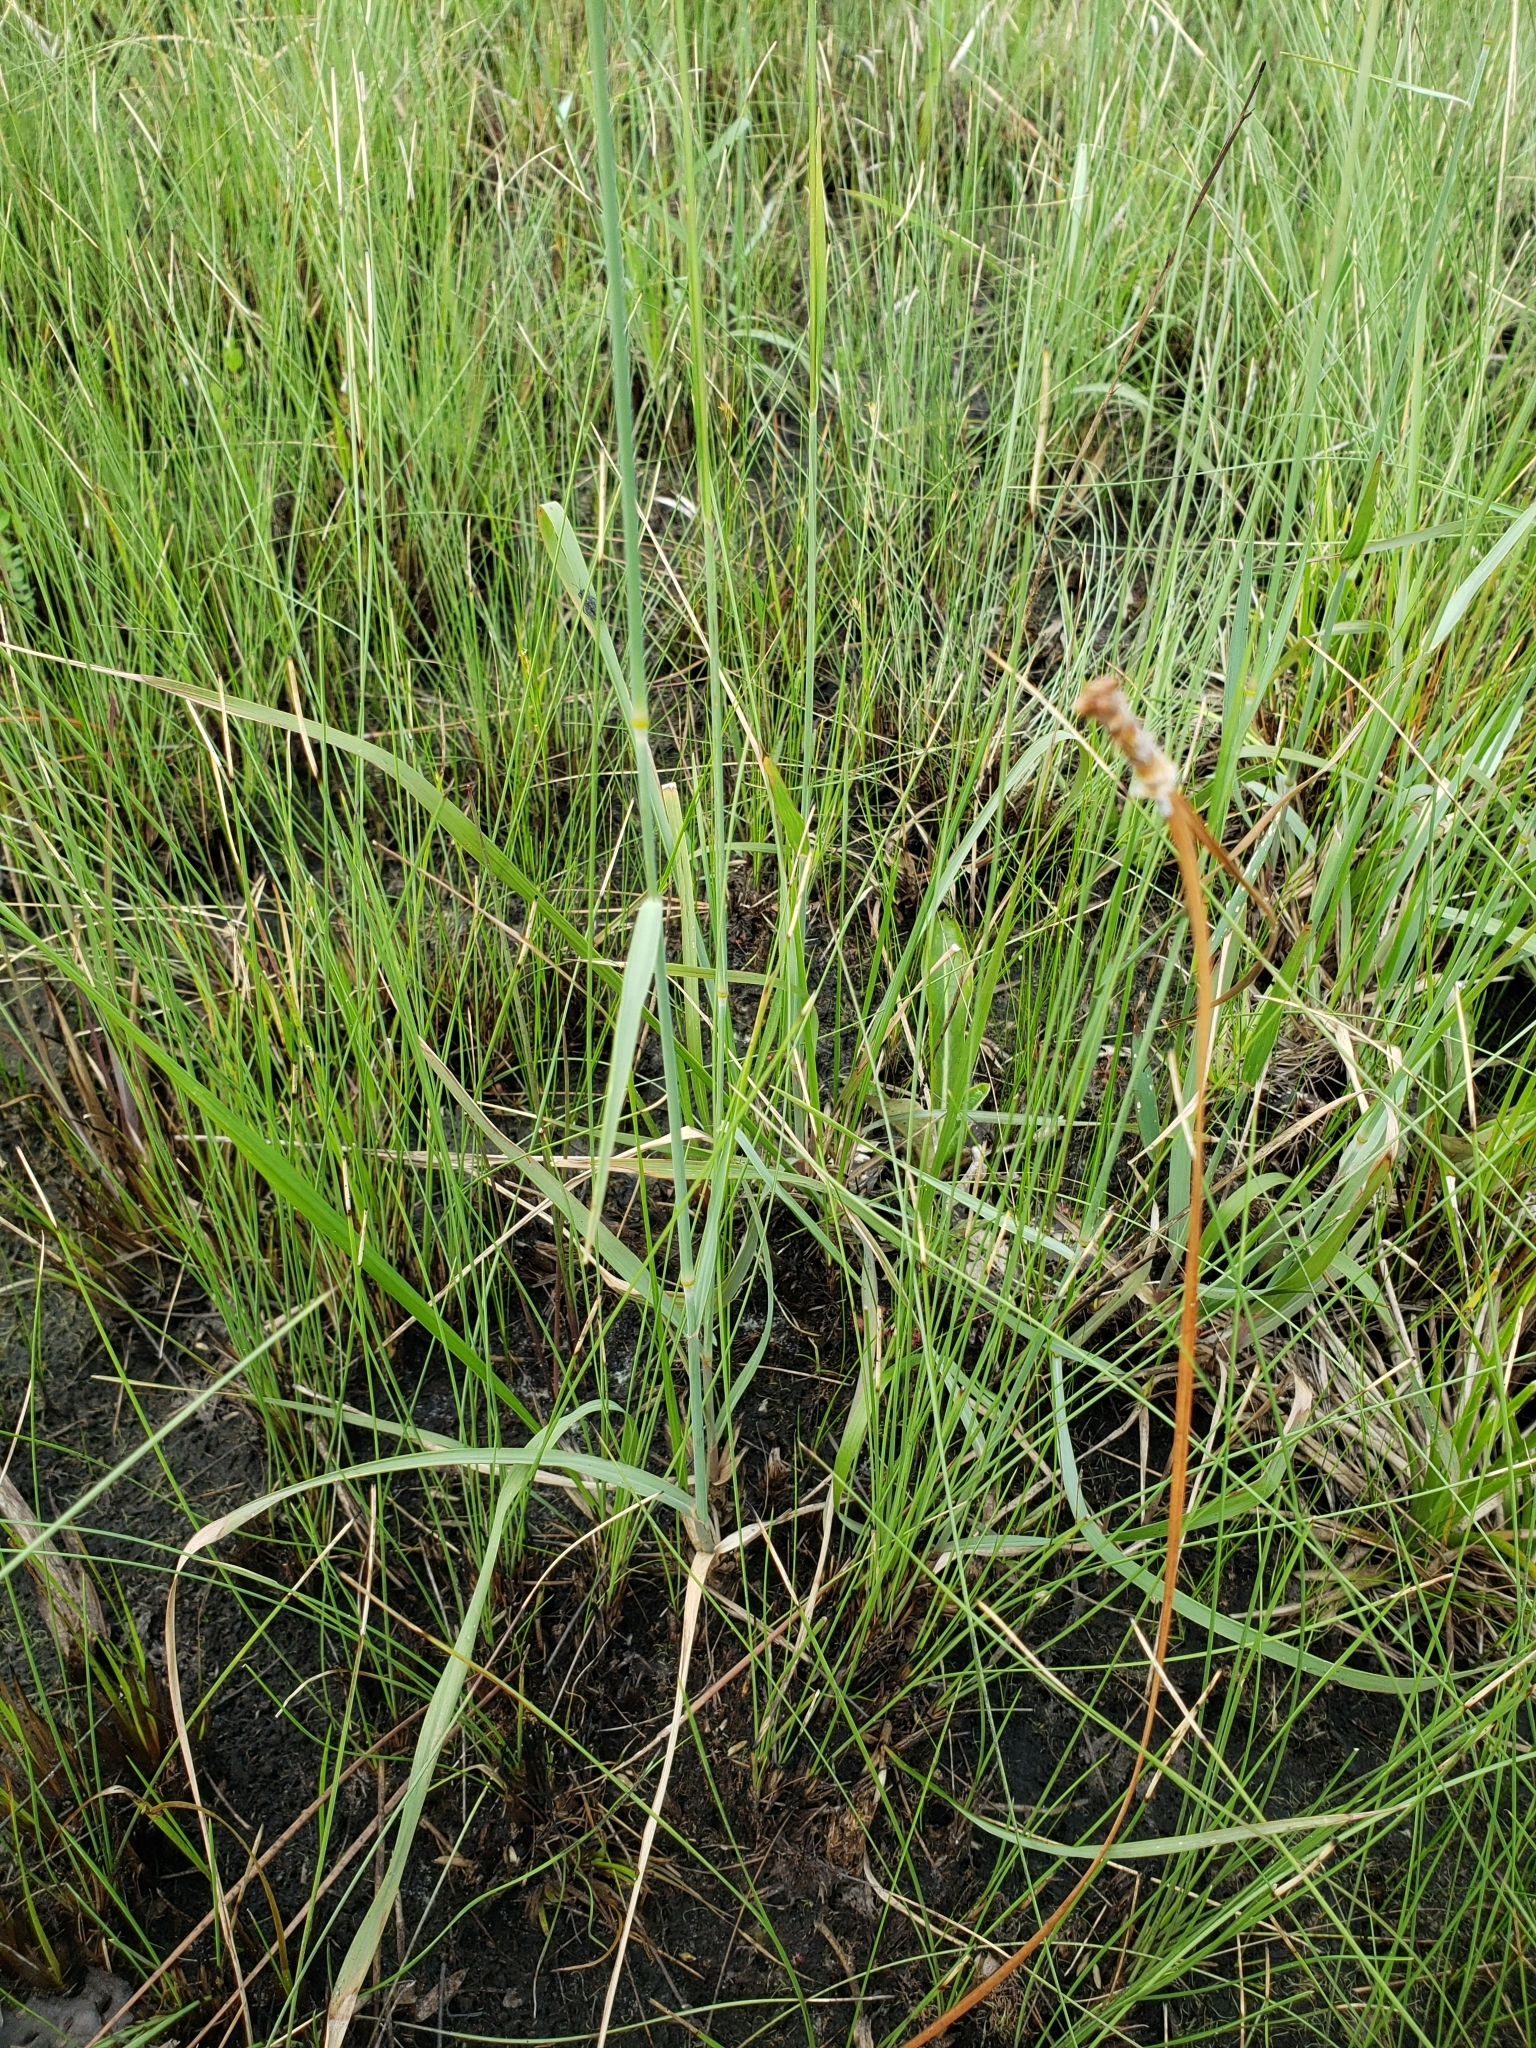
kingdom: Plantae
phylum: Tracheophyta
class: Liliopsida
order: Poales
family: Poaceae
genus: Ctenium
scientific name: Ctenium aromaticum
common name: Toothache grass
